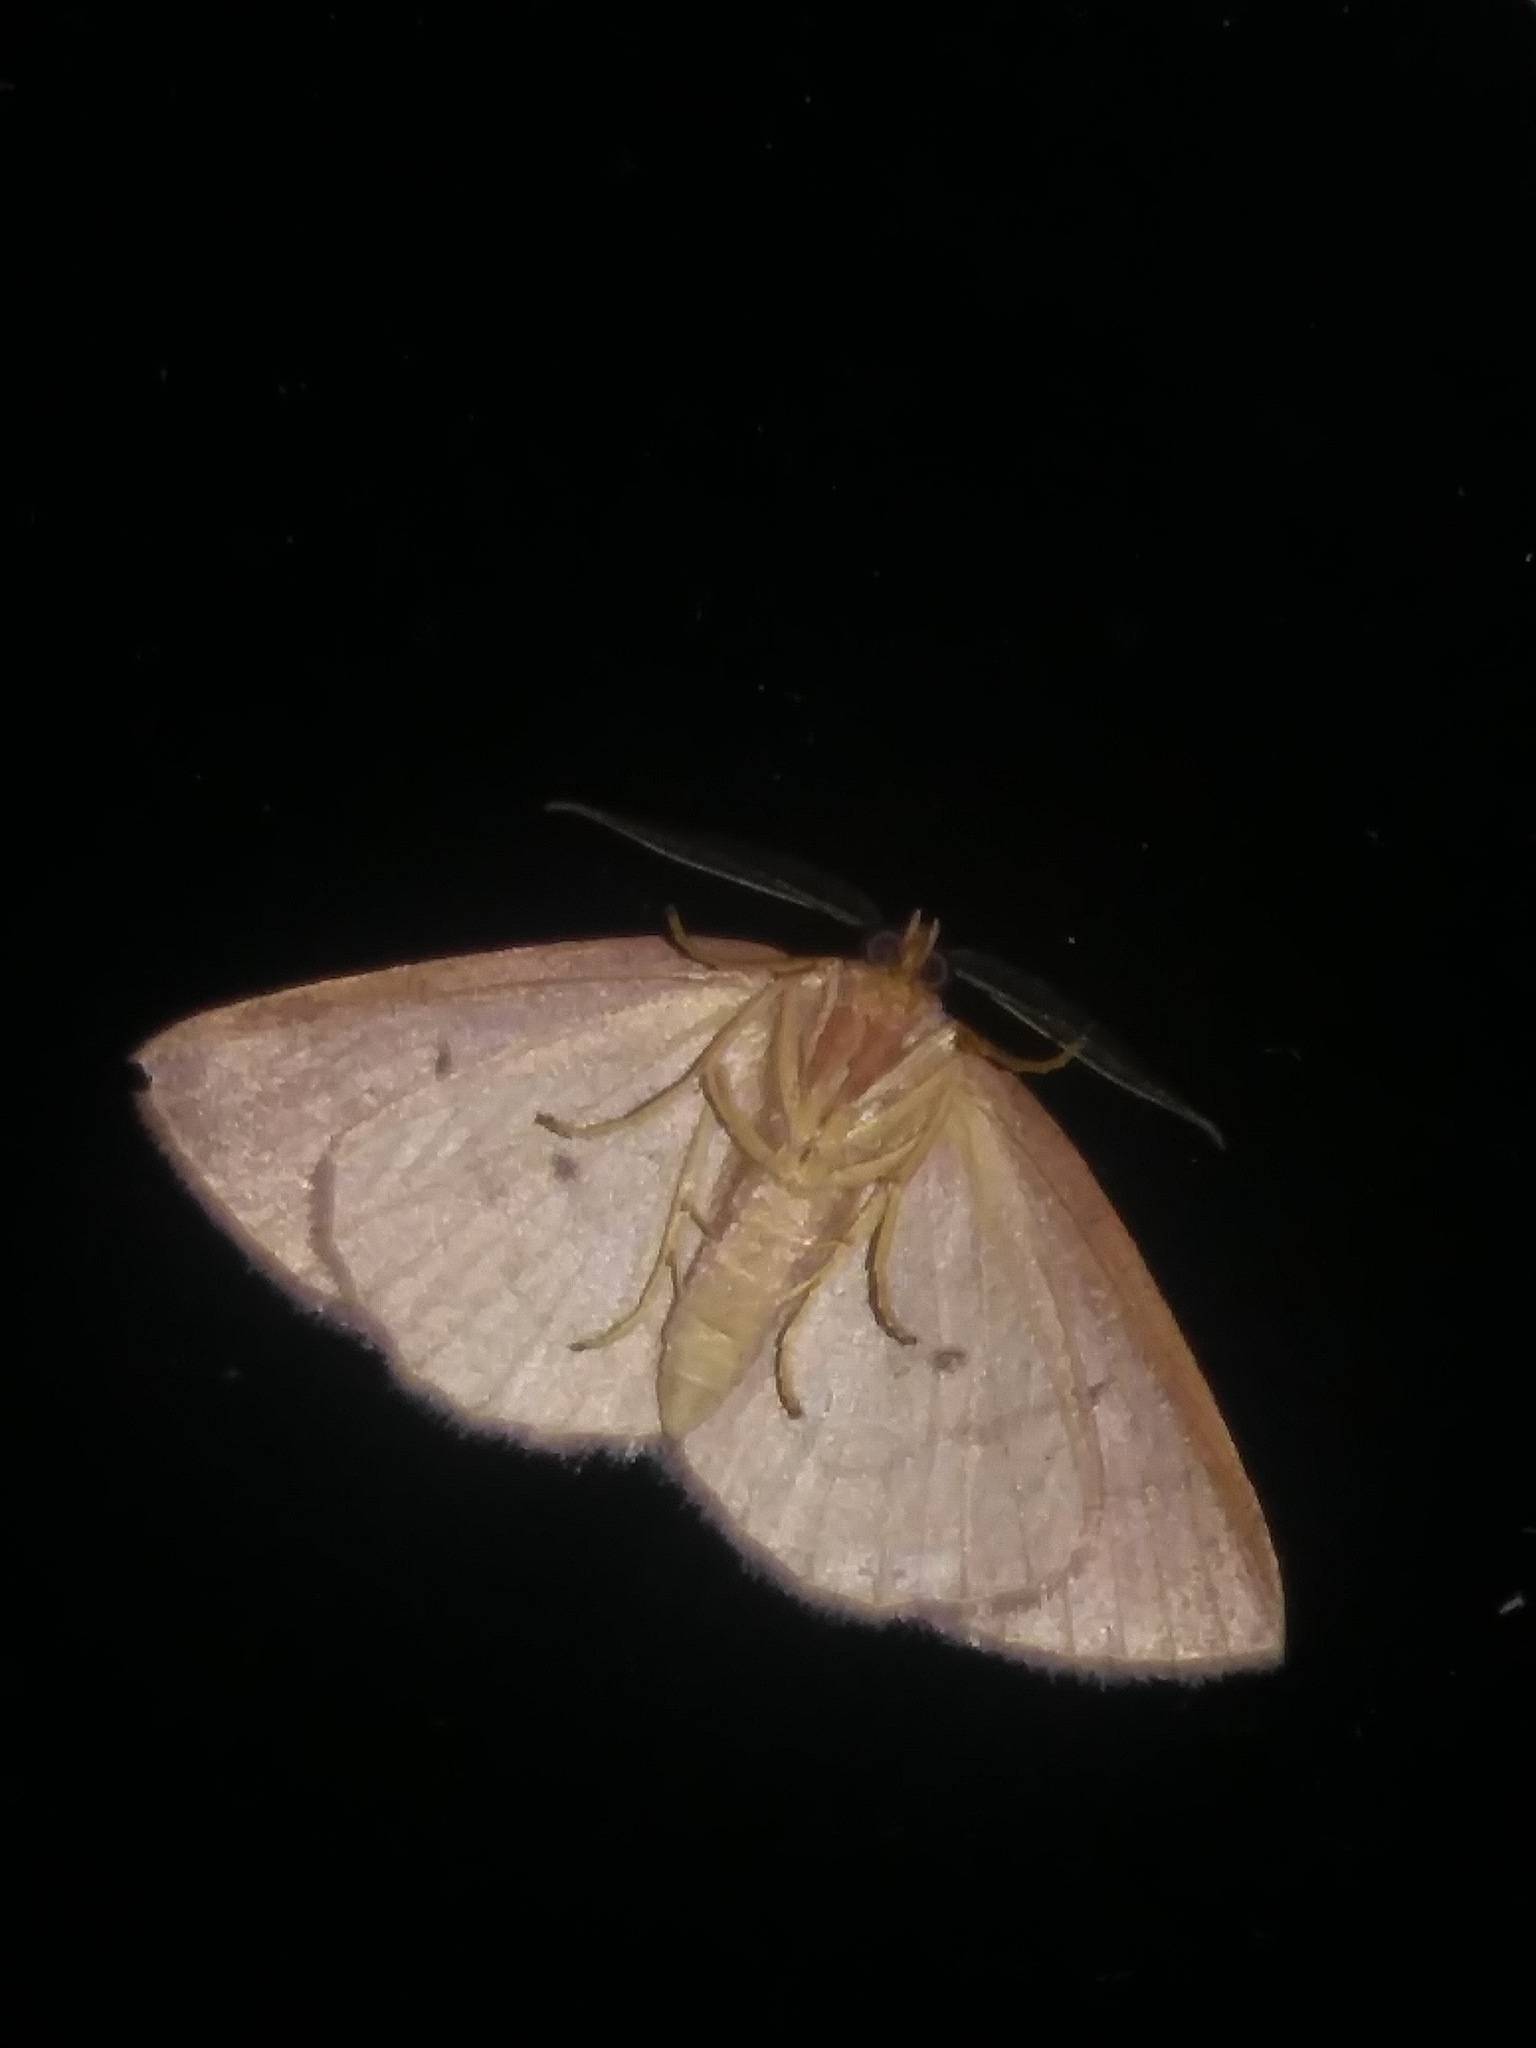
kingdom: Animalia
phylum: Arthropoda
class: Insecta
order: Lepidoptera
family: Geometridae
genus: Ilexia
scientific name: Ilexia intractata
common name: Black-dotted ruddy moth
